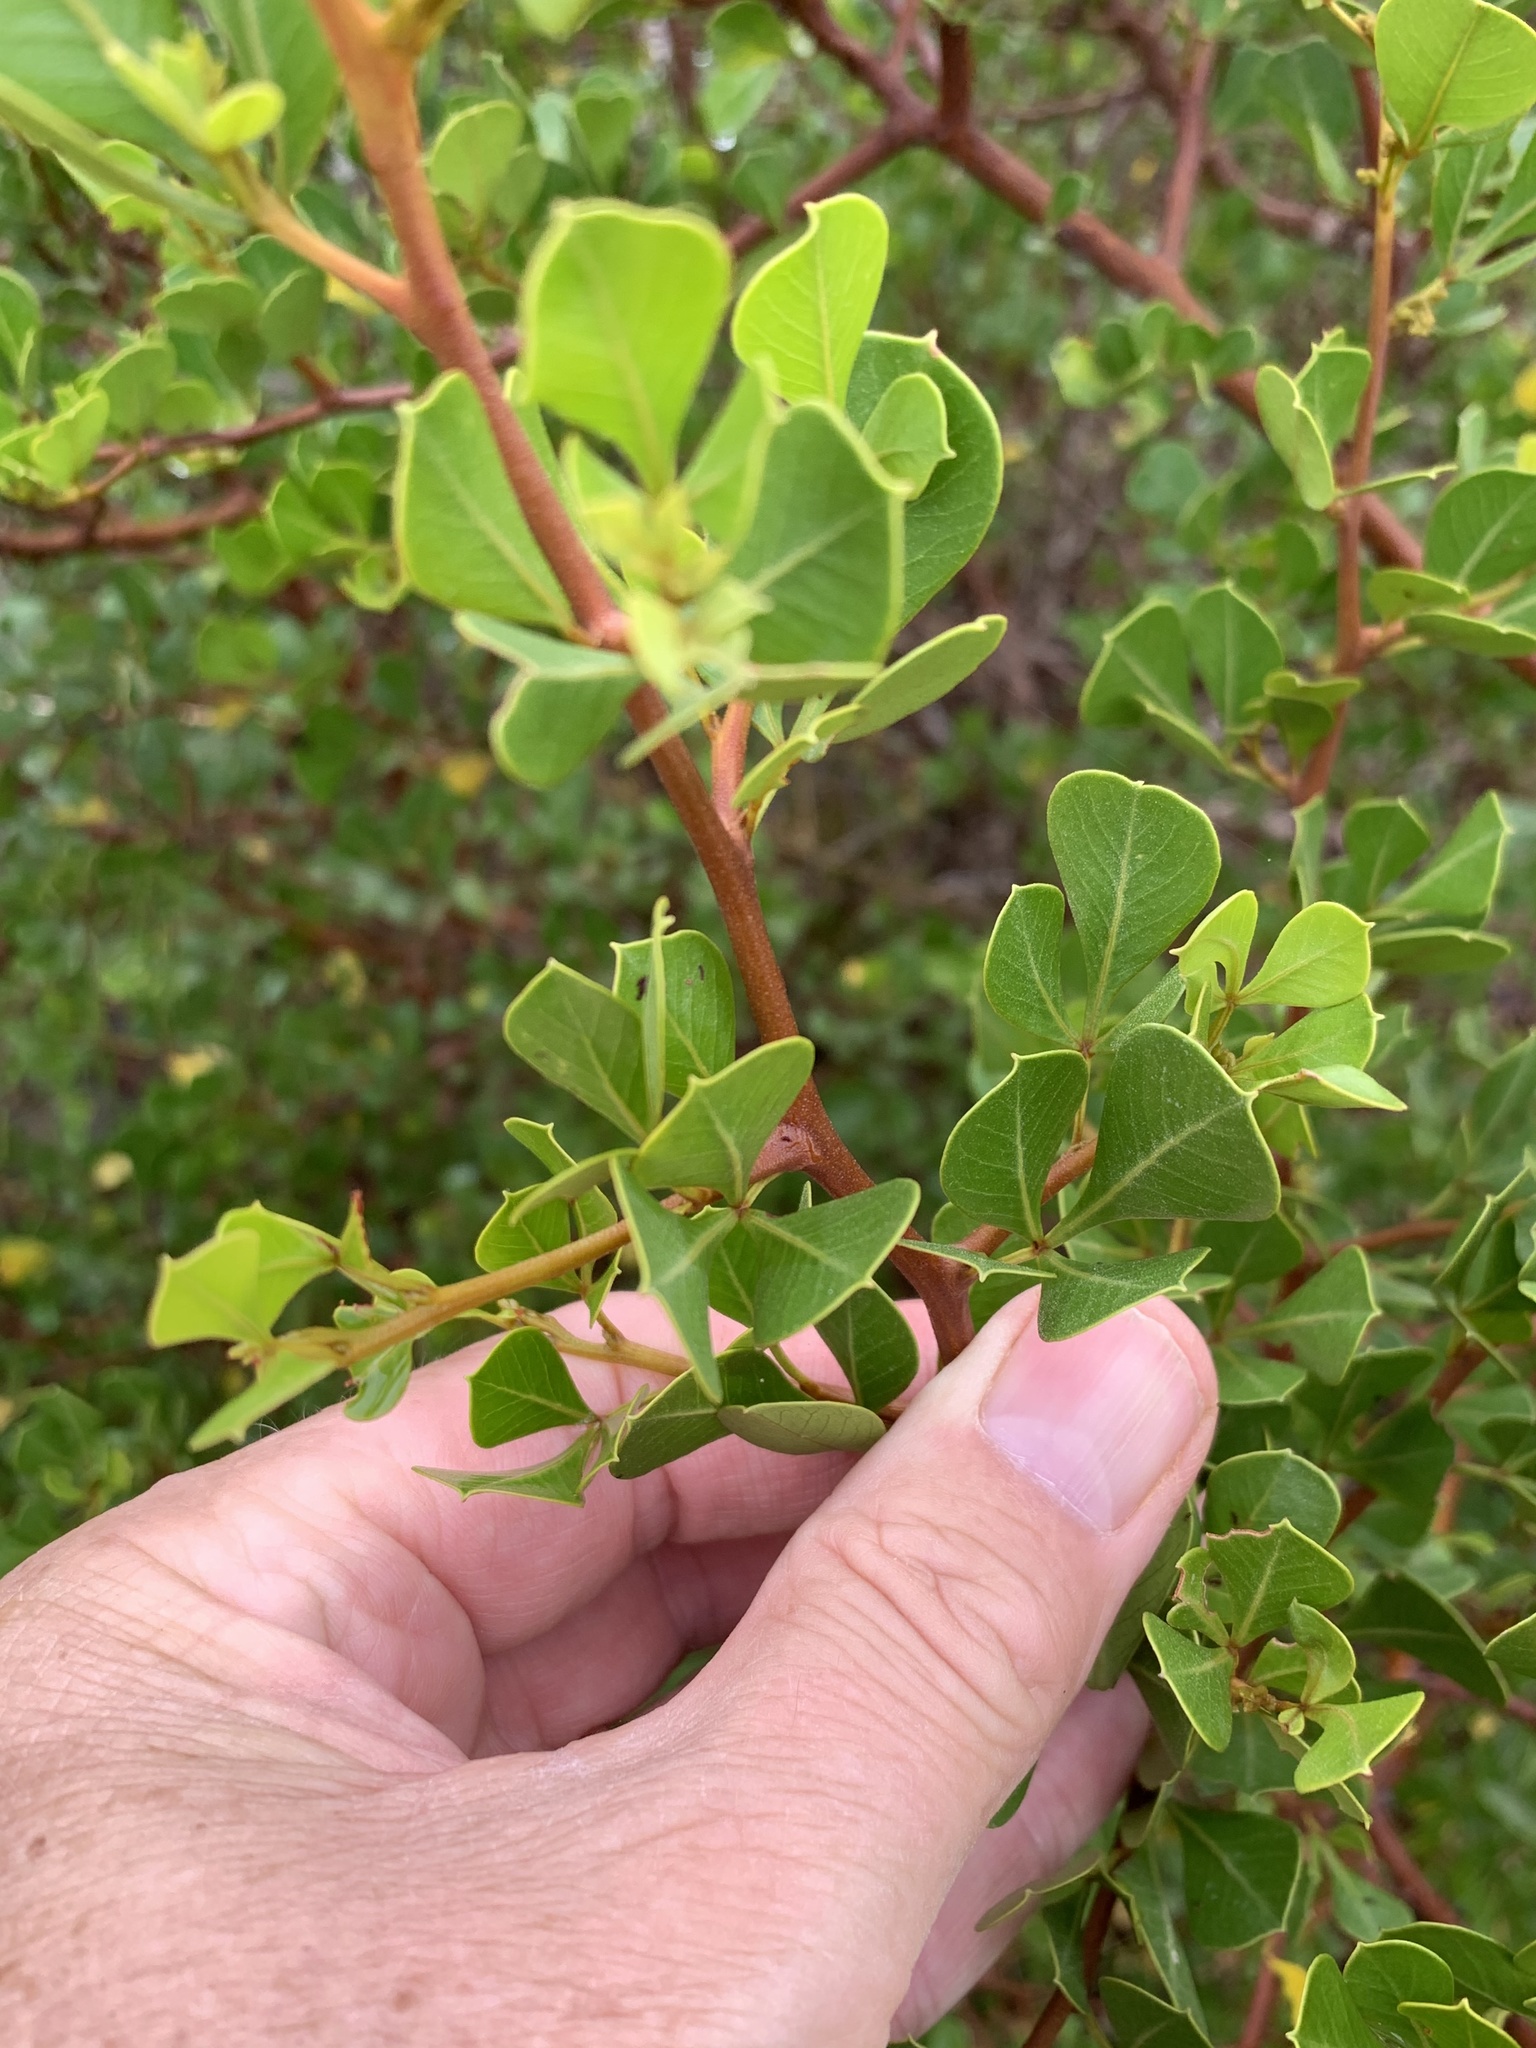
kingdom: Plantae
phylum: Tracheophyta
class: Magnoliopsida
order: Sapindales
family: Anacardiaceae
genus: Searsia
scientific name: Searsia glauca
